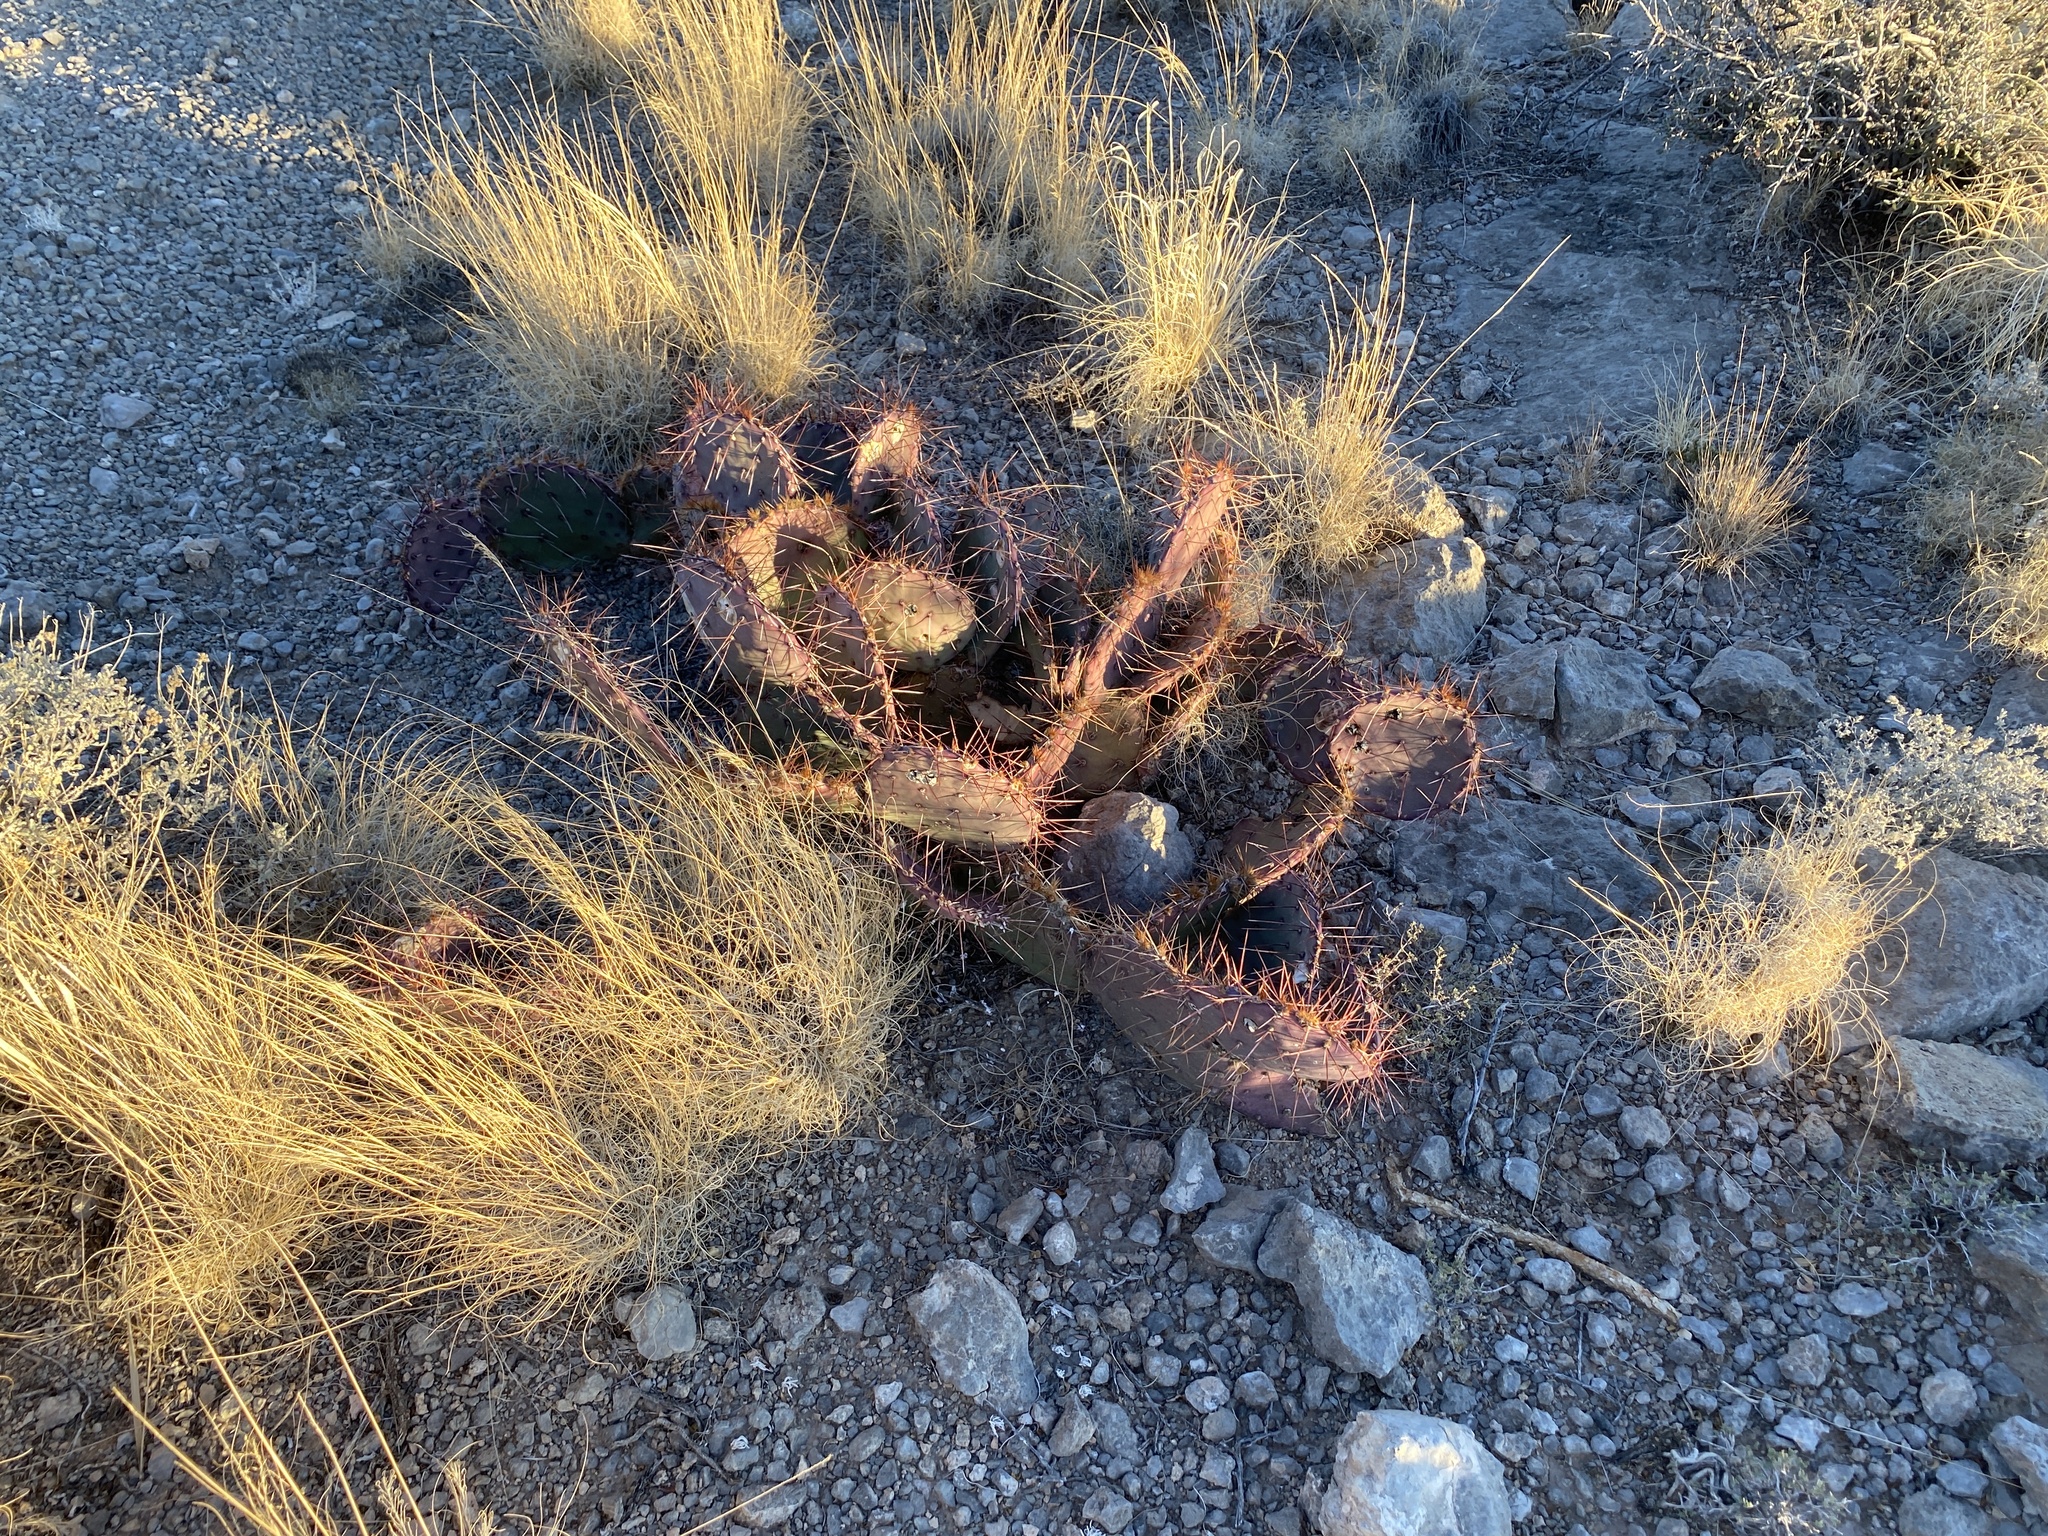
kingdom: Plantae
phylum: Tracheophyta
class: Magnoliopsida
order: Caryophyllales
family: Cactaceae
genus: Opuntia
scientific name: Opuntia macrocentra
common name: Purple prickly-pear
